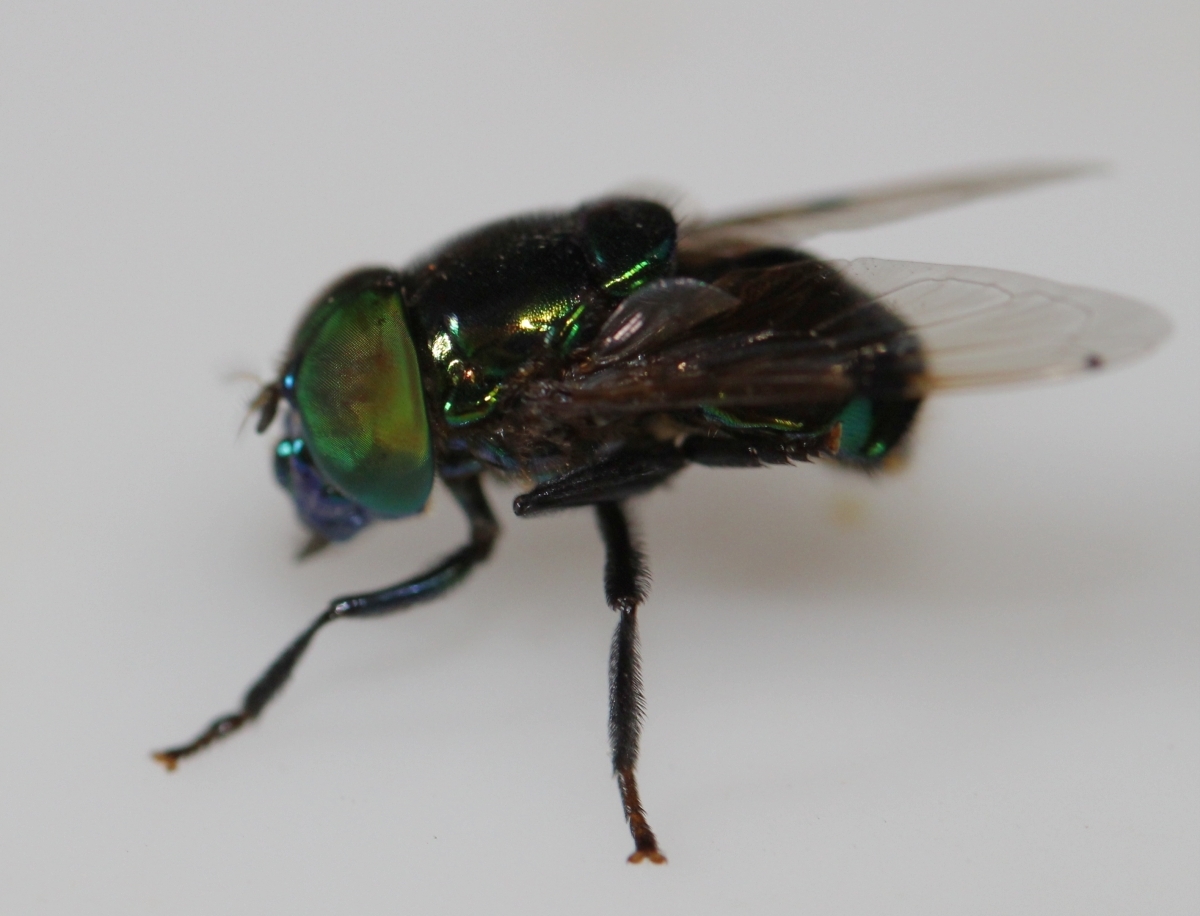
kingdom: Animalia
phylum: Arthropoda
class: Insecta
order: Diptera
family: Syrphidae
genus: Ornidia
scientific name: Ornidia obesa
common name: Syrphid fly
